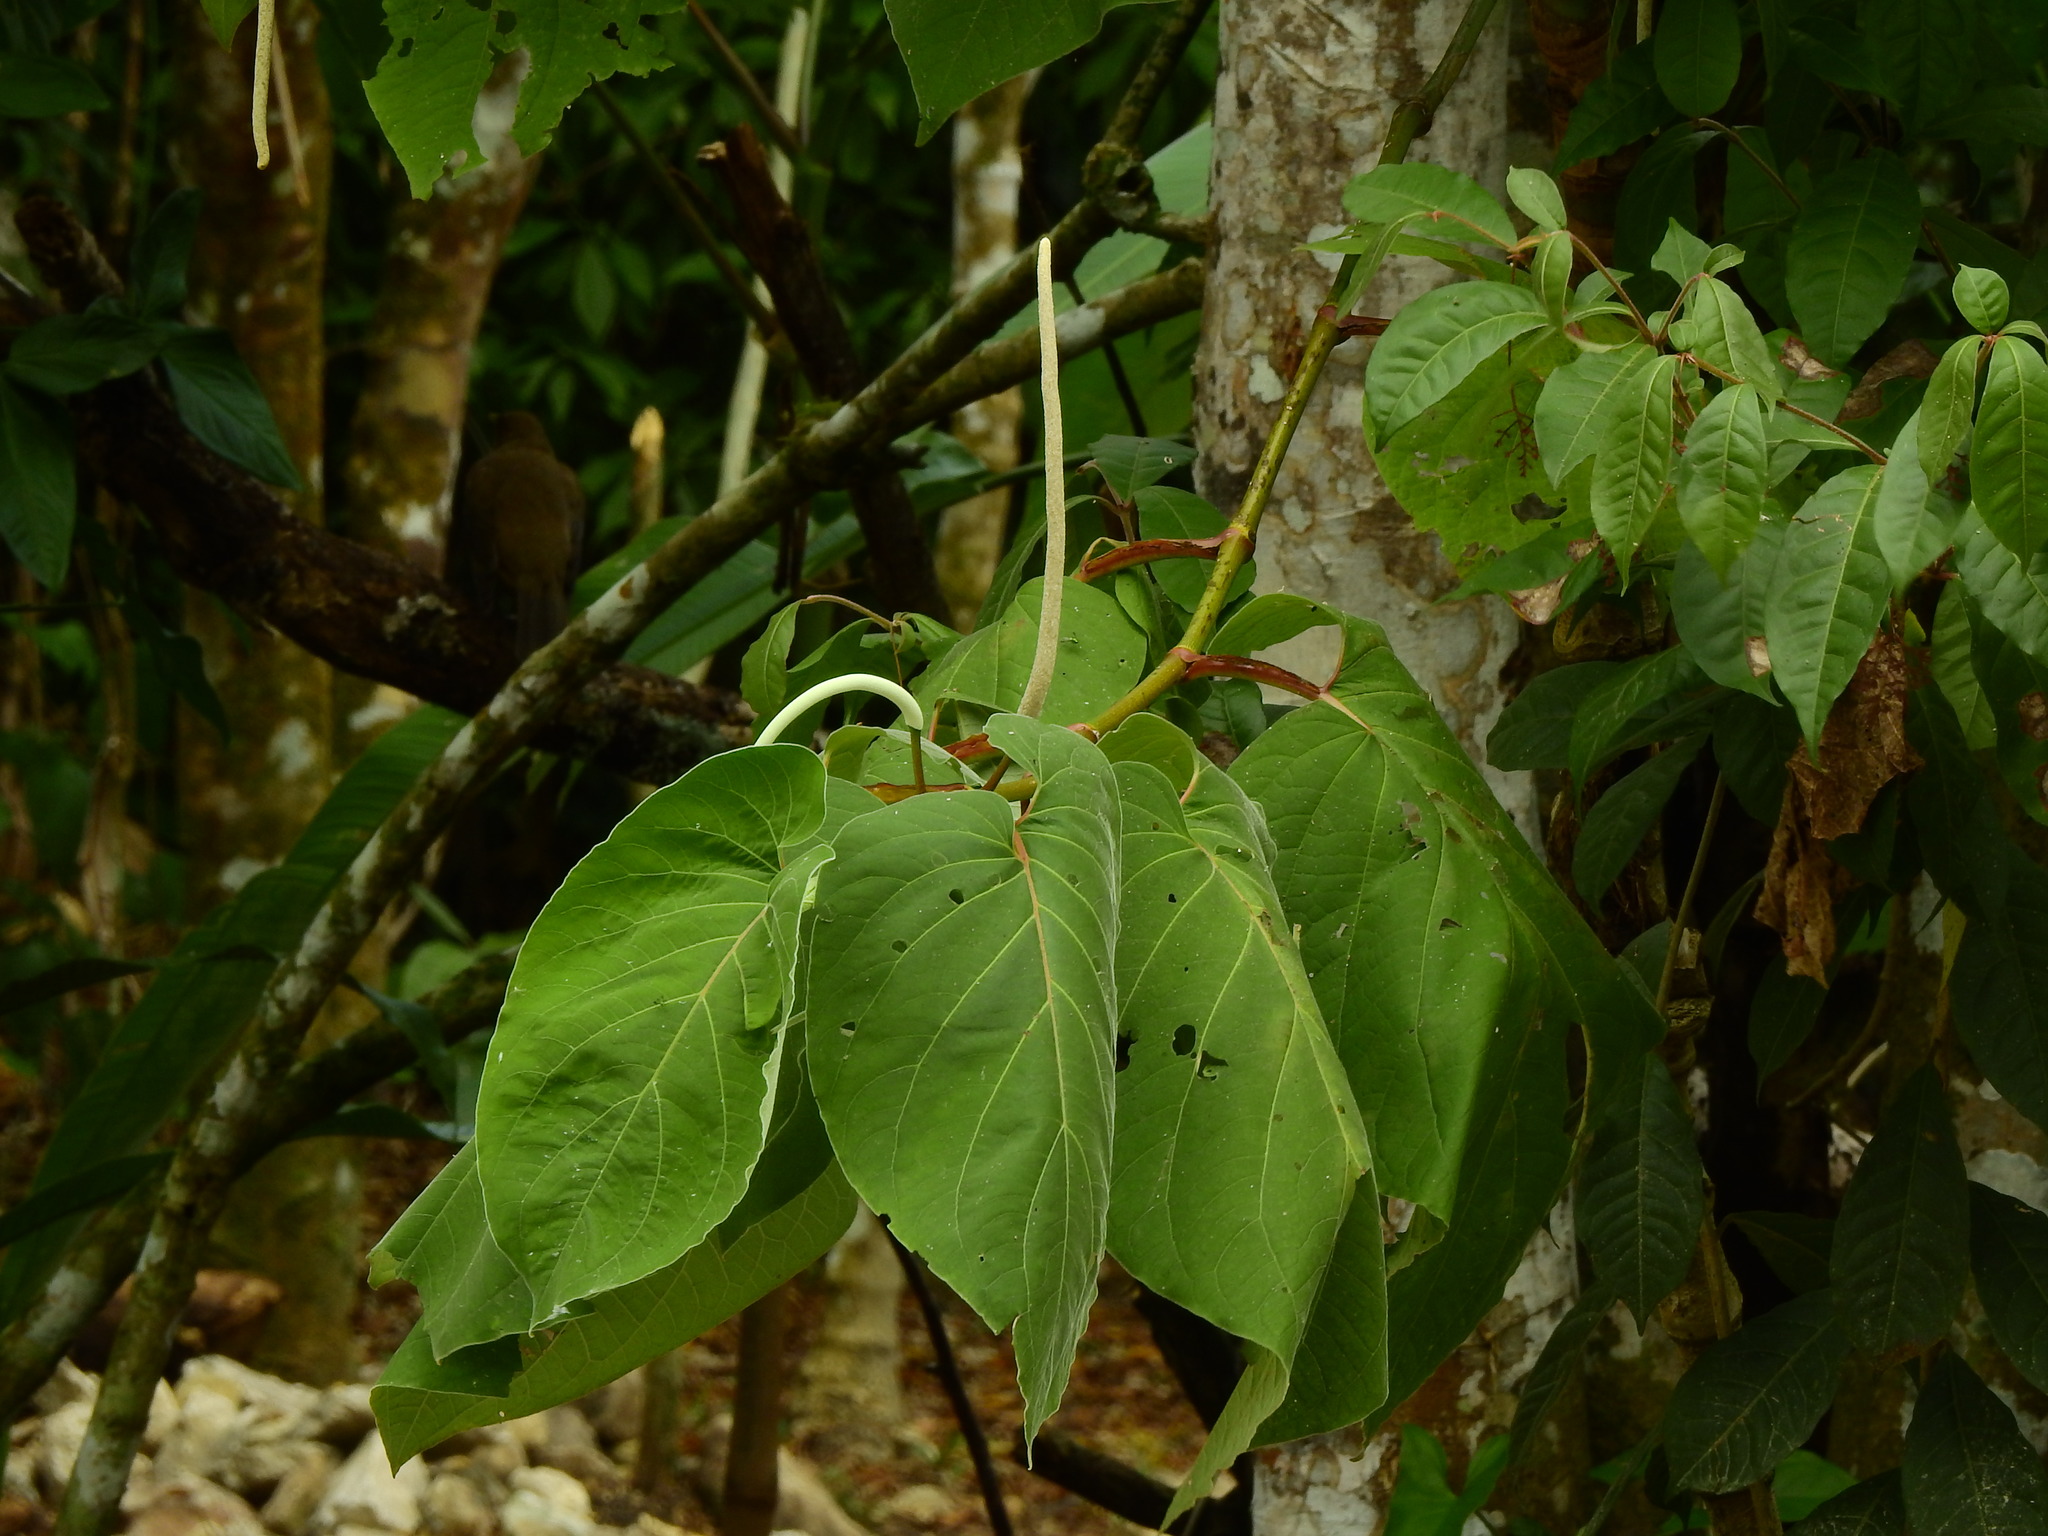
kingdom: Plantae
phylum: Tracheophyta
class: Magnoliopsida
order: Piperales
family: Piperaceae
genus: Piper
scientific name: Piper auritum
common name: Vera cruz pepper
